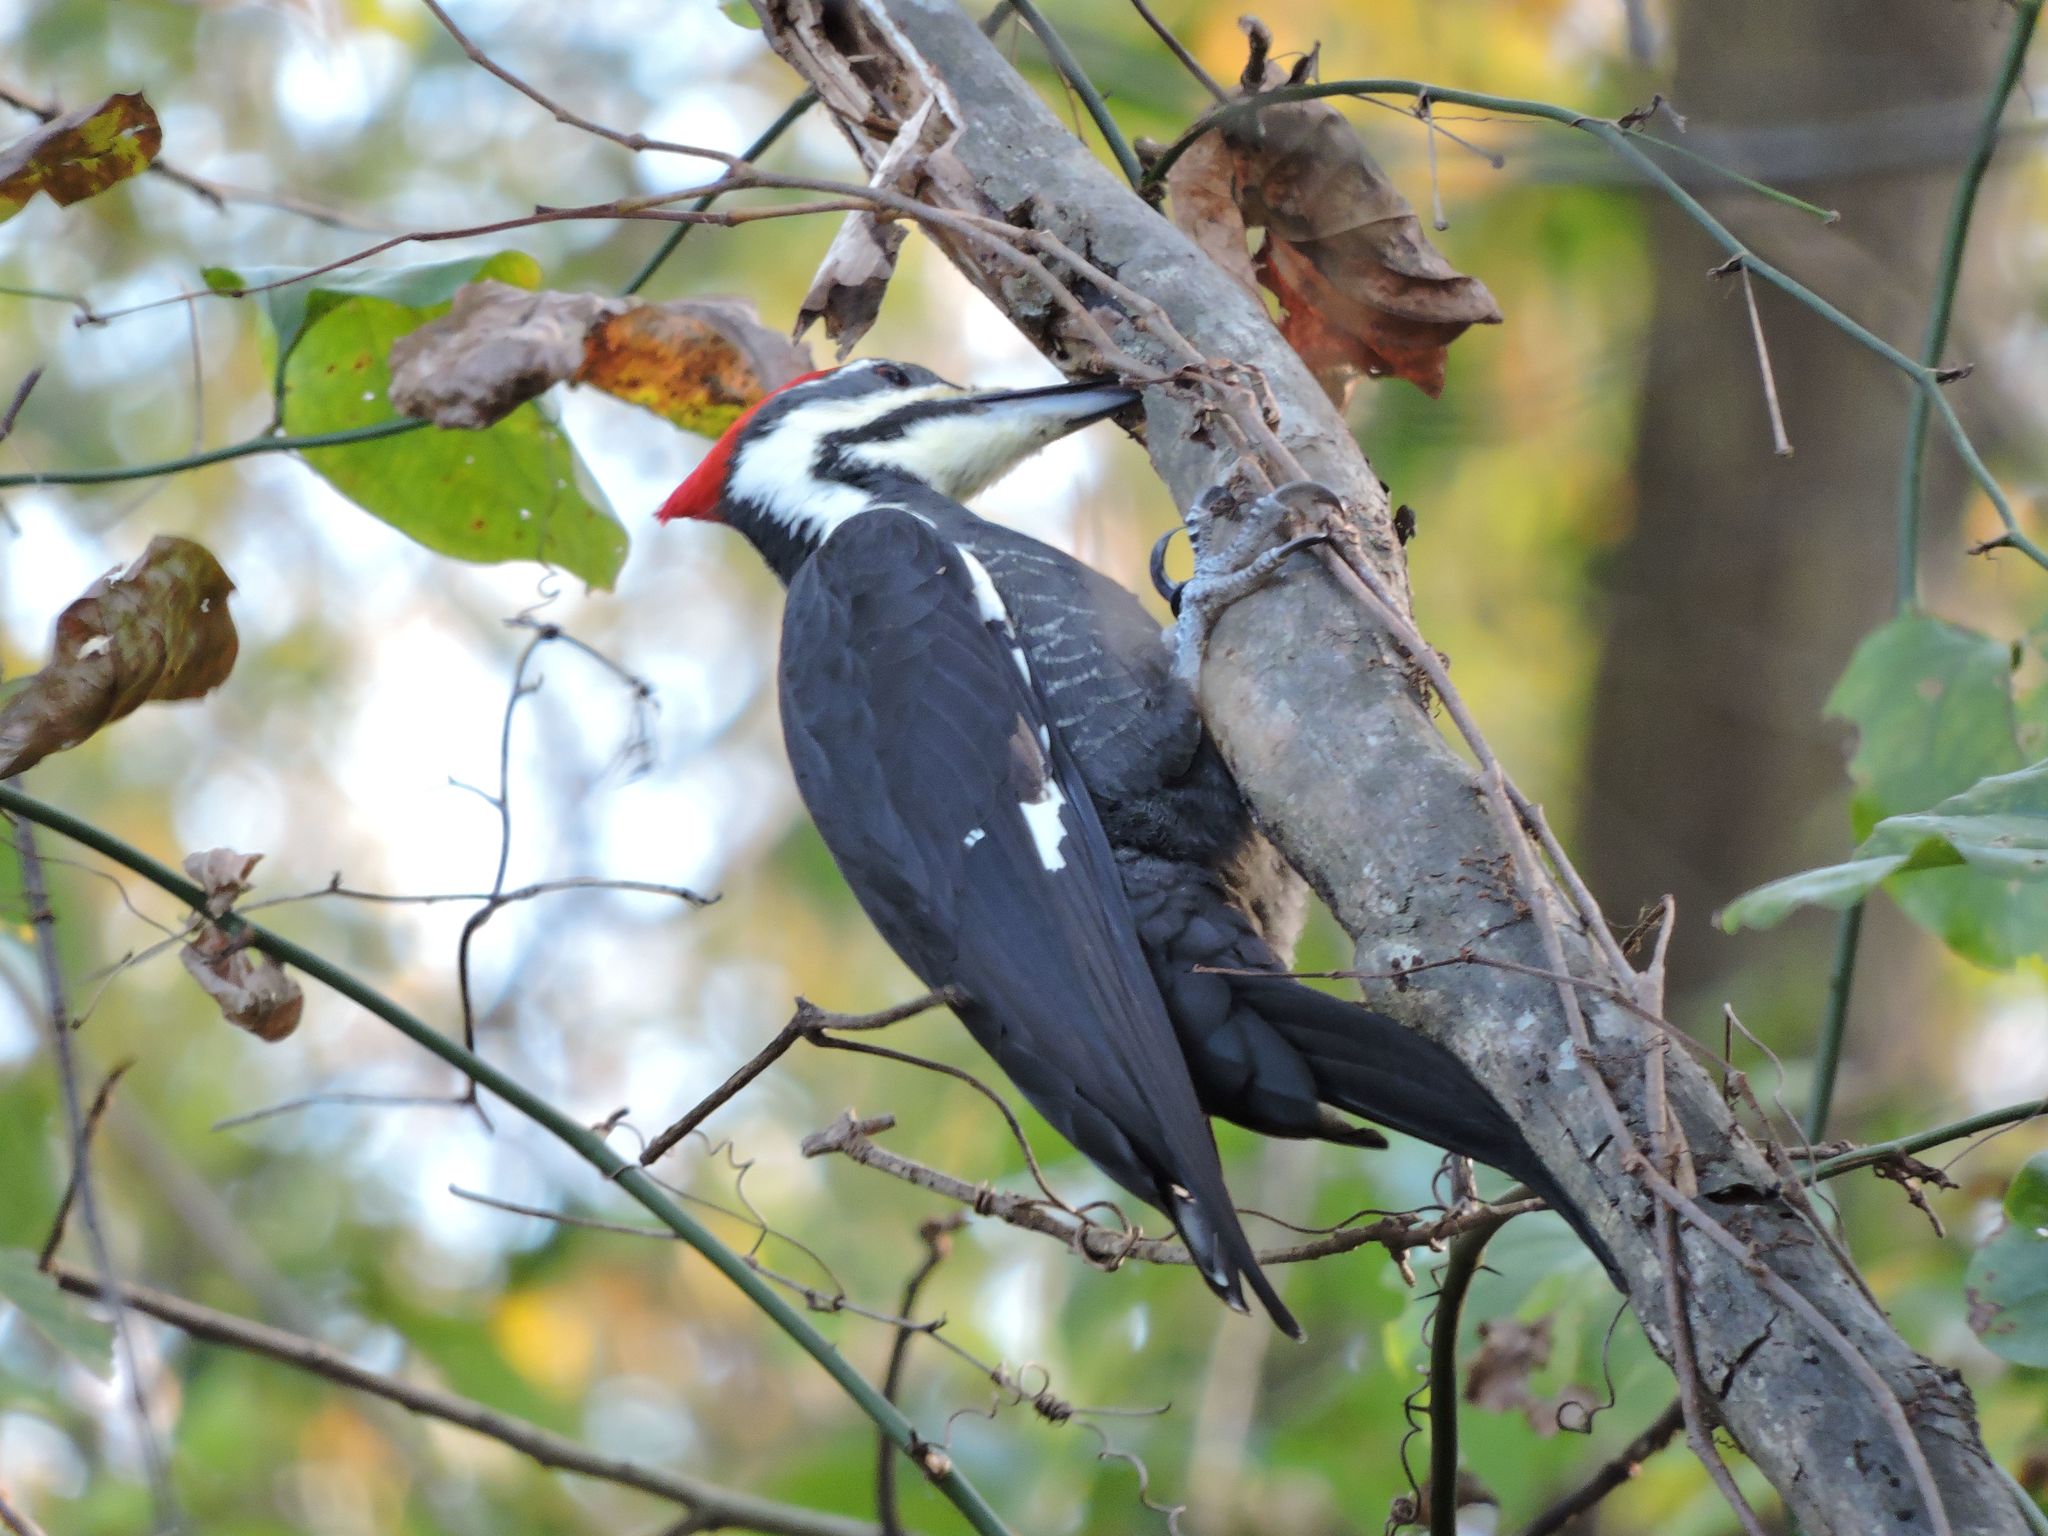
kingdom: Animalia
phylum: Chordata
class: Aves
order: Piciformes
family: Picidae
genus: Dryocopus
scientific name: Dryocopus pileatus
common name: Pileated woodpecker
